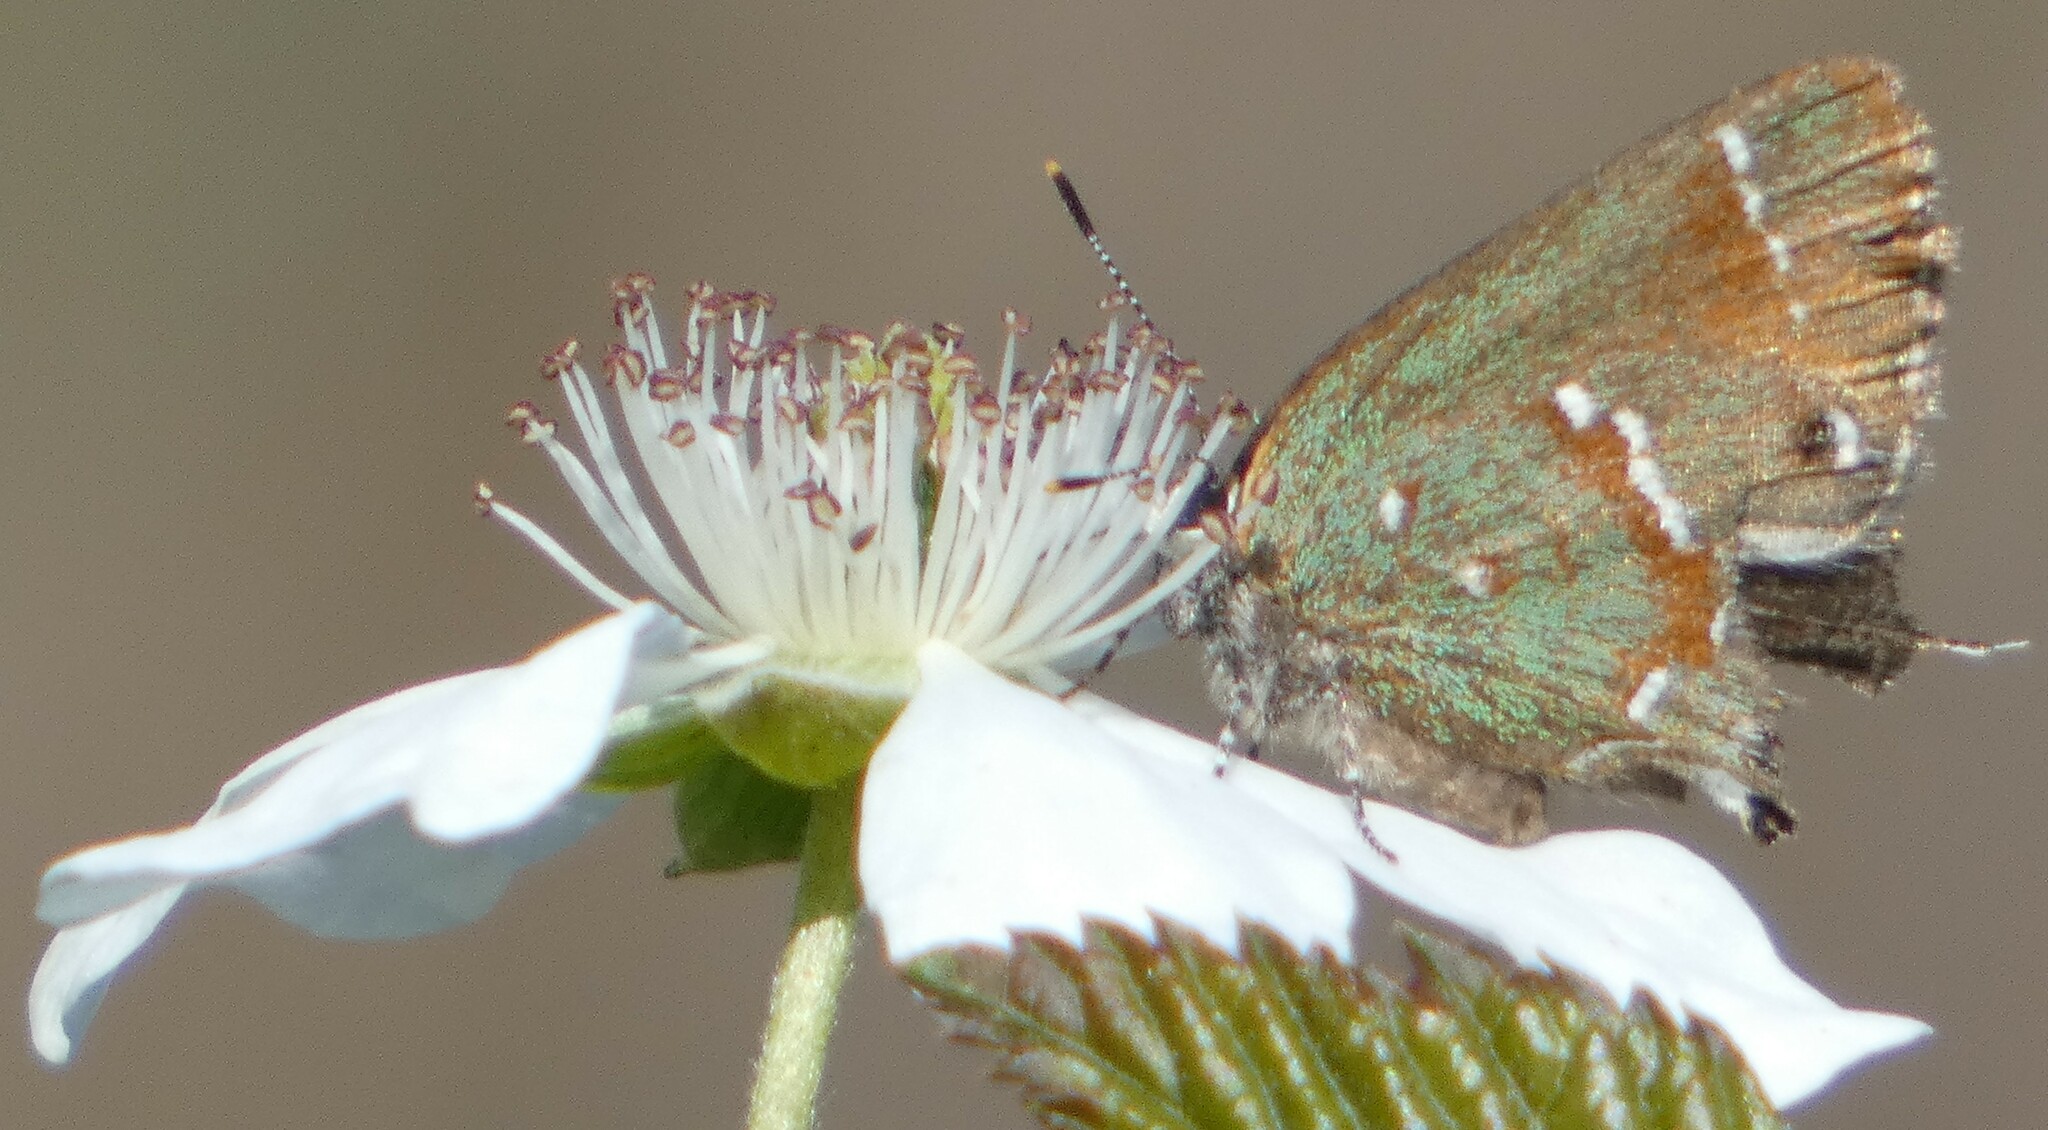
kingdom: Animalia
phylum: Arthropoda
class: Insecta
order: Lepidoptera
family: Lycaenidae
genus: Mitoura
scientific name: Mitoura gryneus
